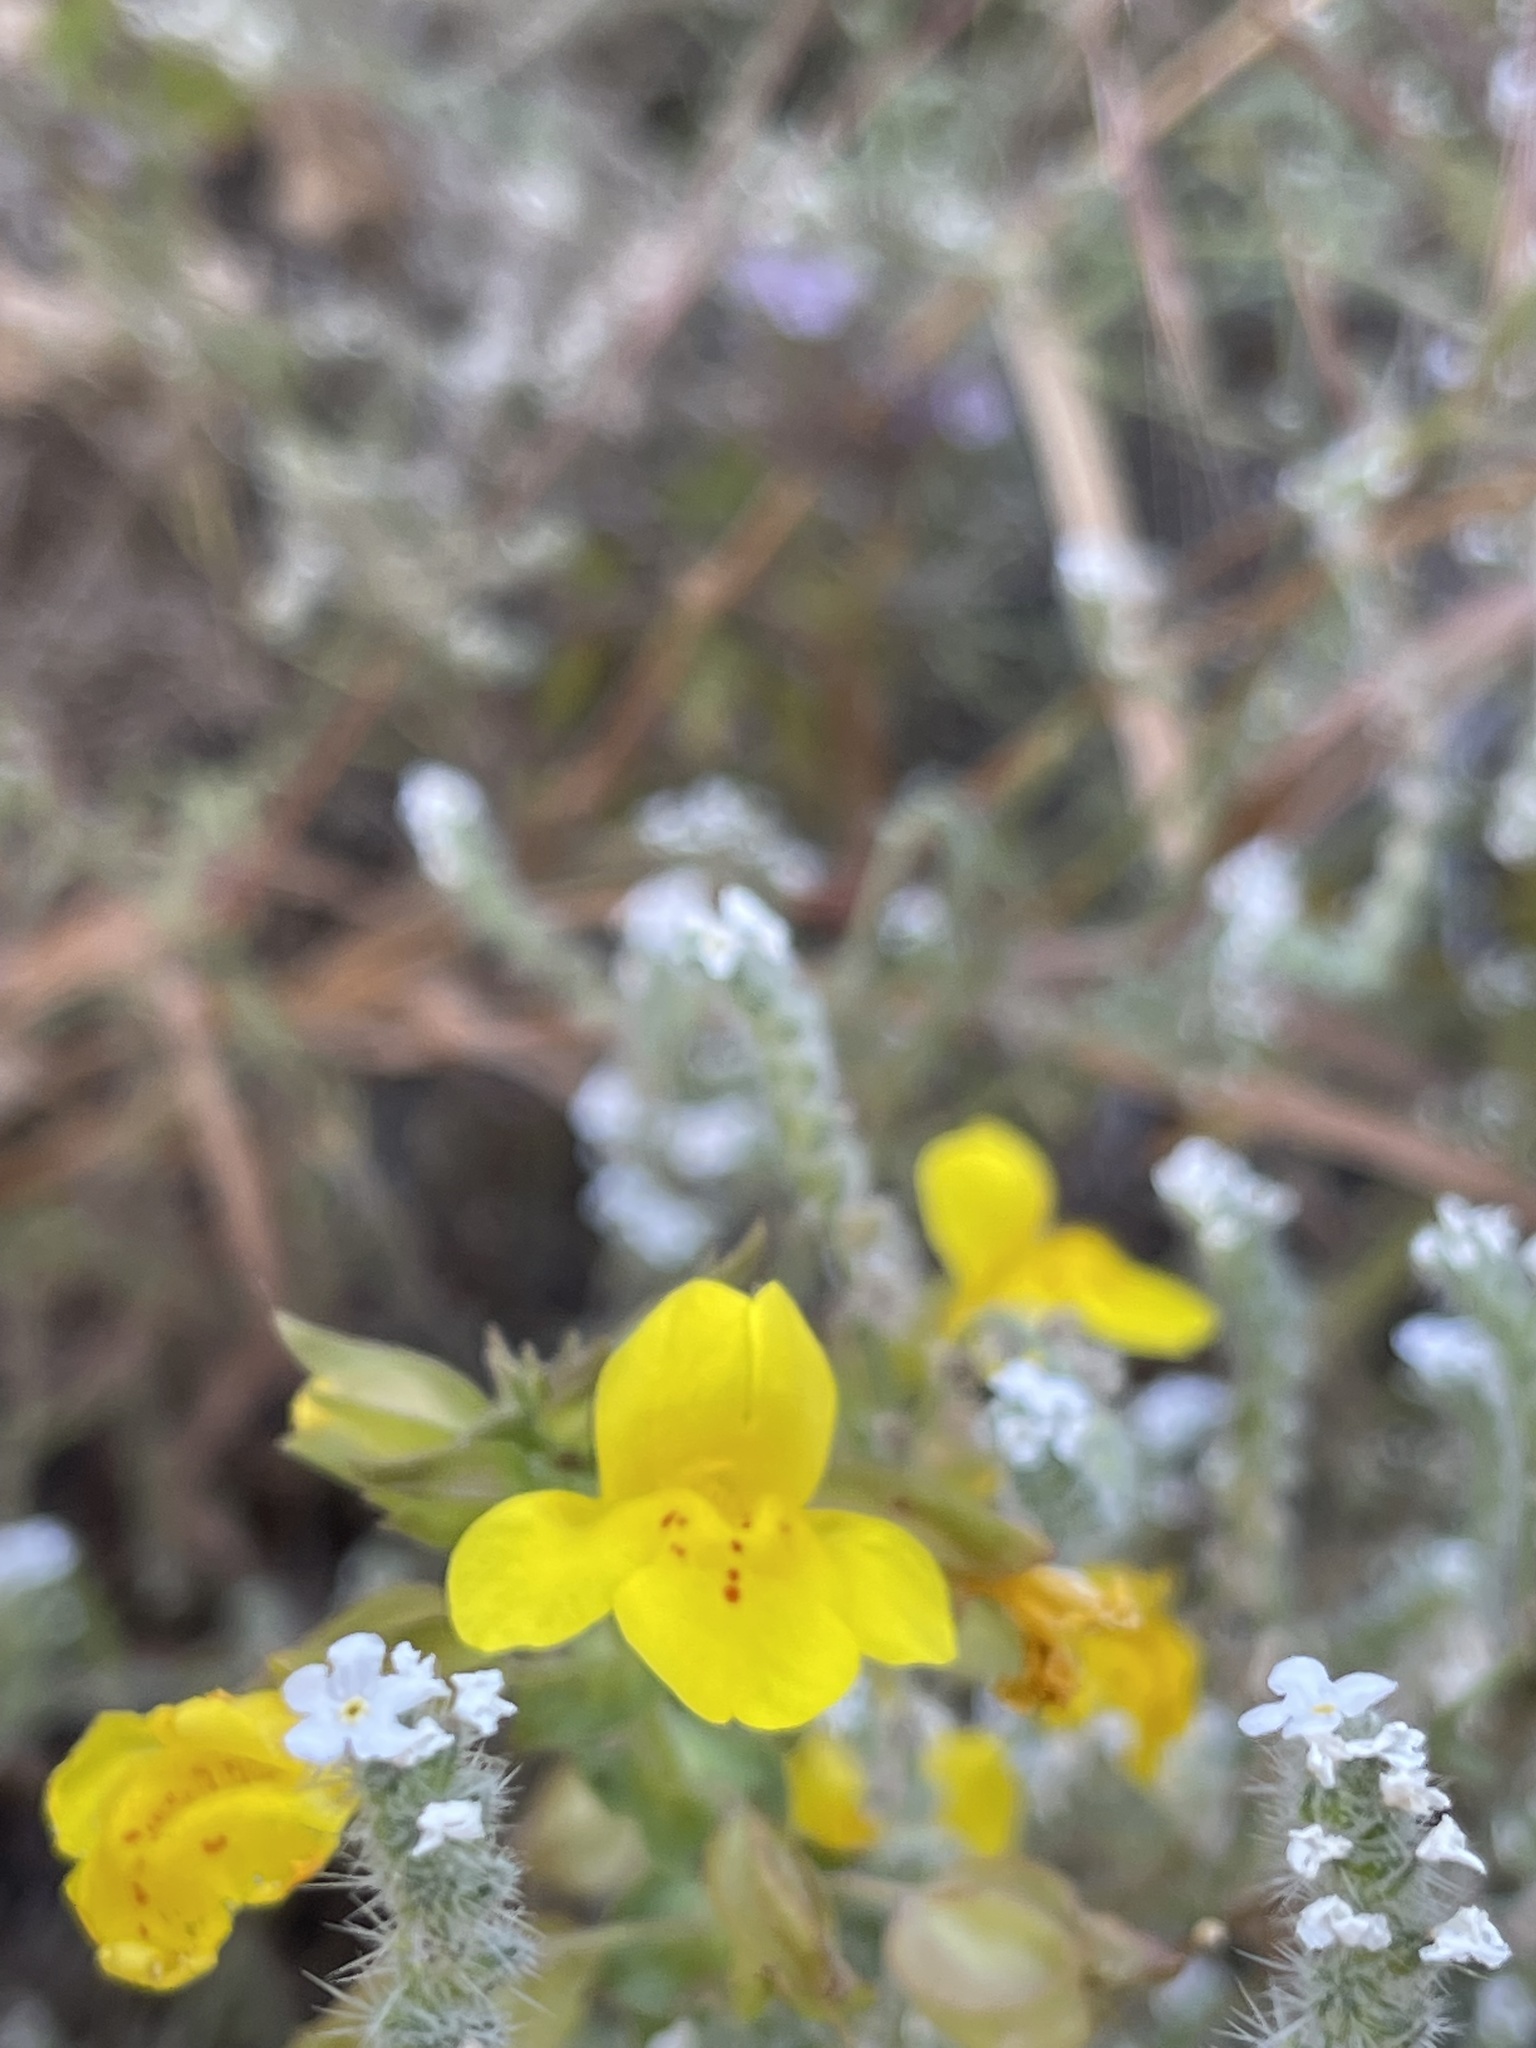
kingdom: Plantae
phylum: Tracheophyta
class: Magnoliopsida
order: Lamiales
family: Phrymaceae
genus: Erythranthe
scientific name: Erythranthe guttata
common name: Monkeyflower
